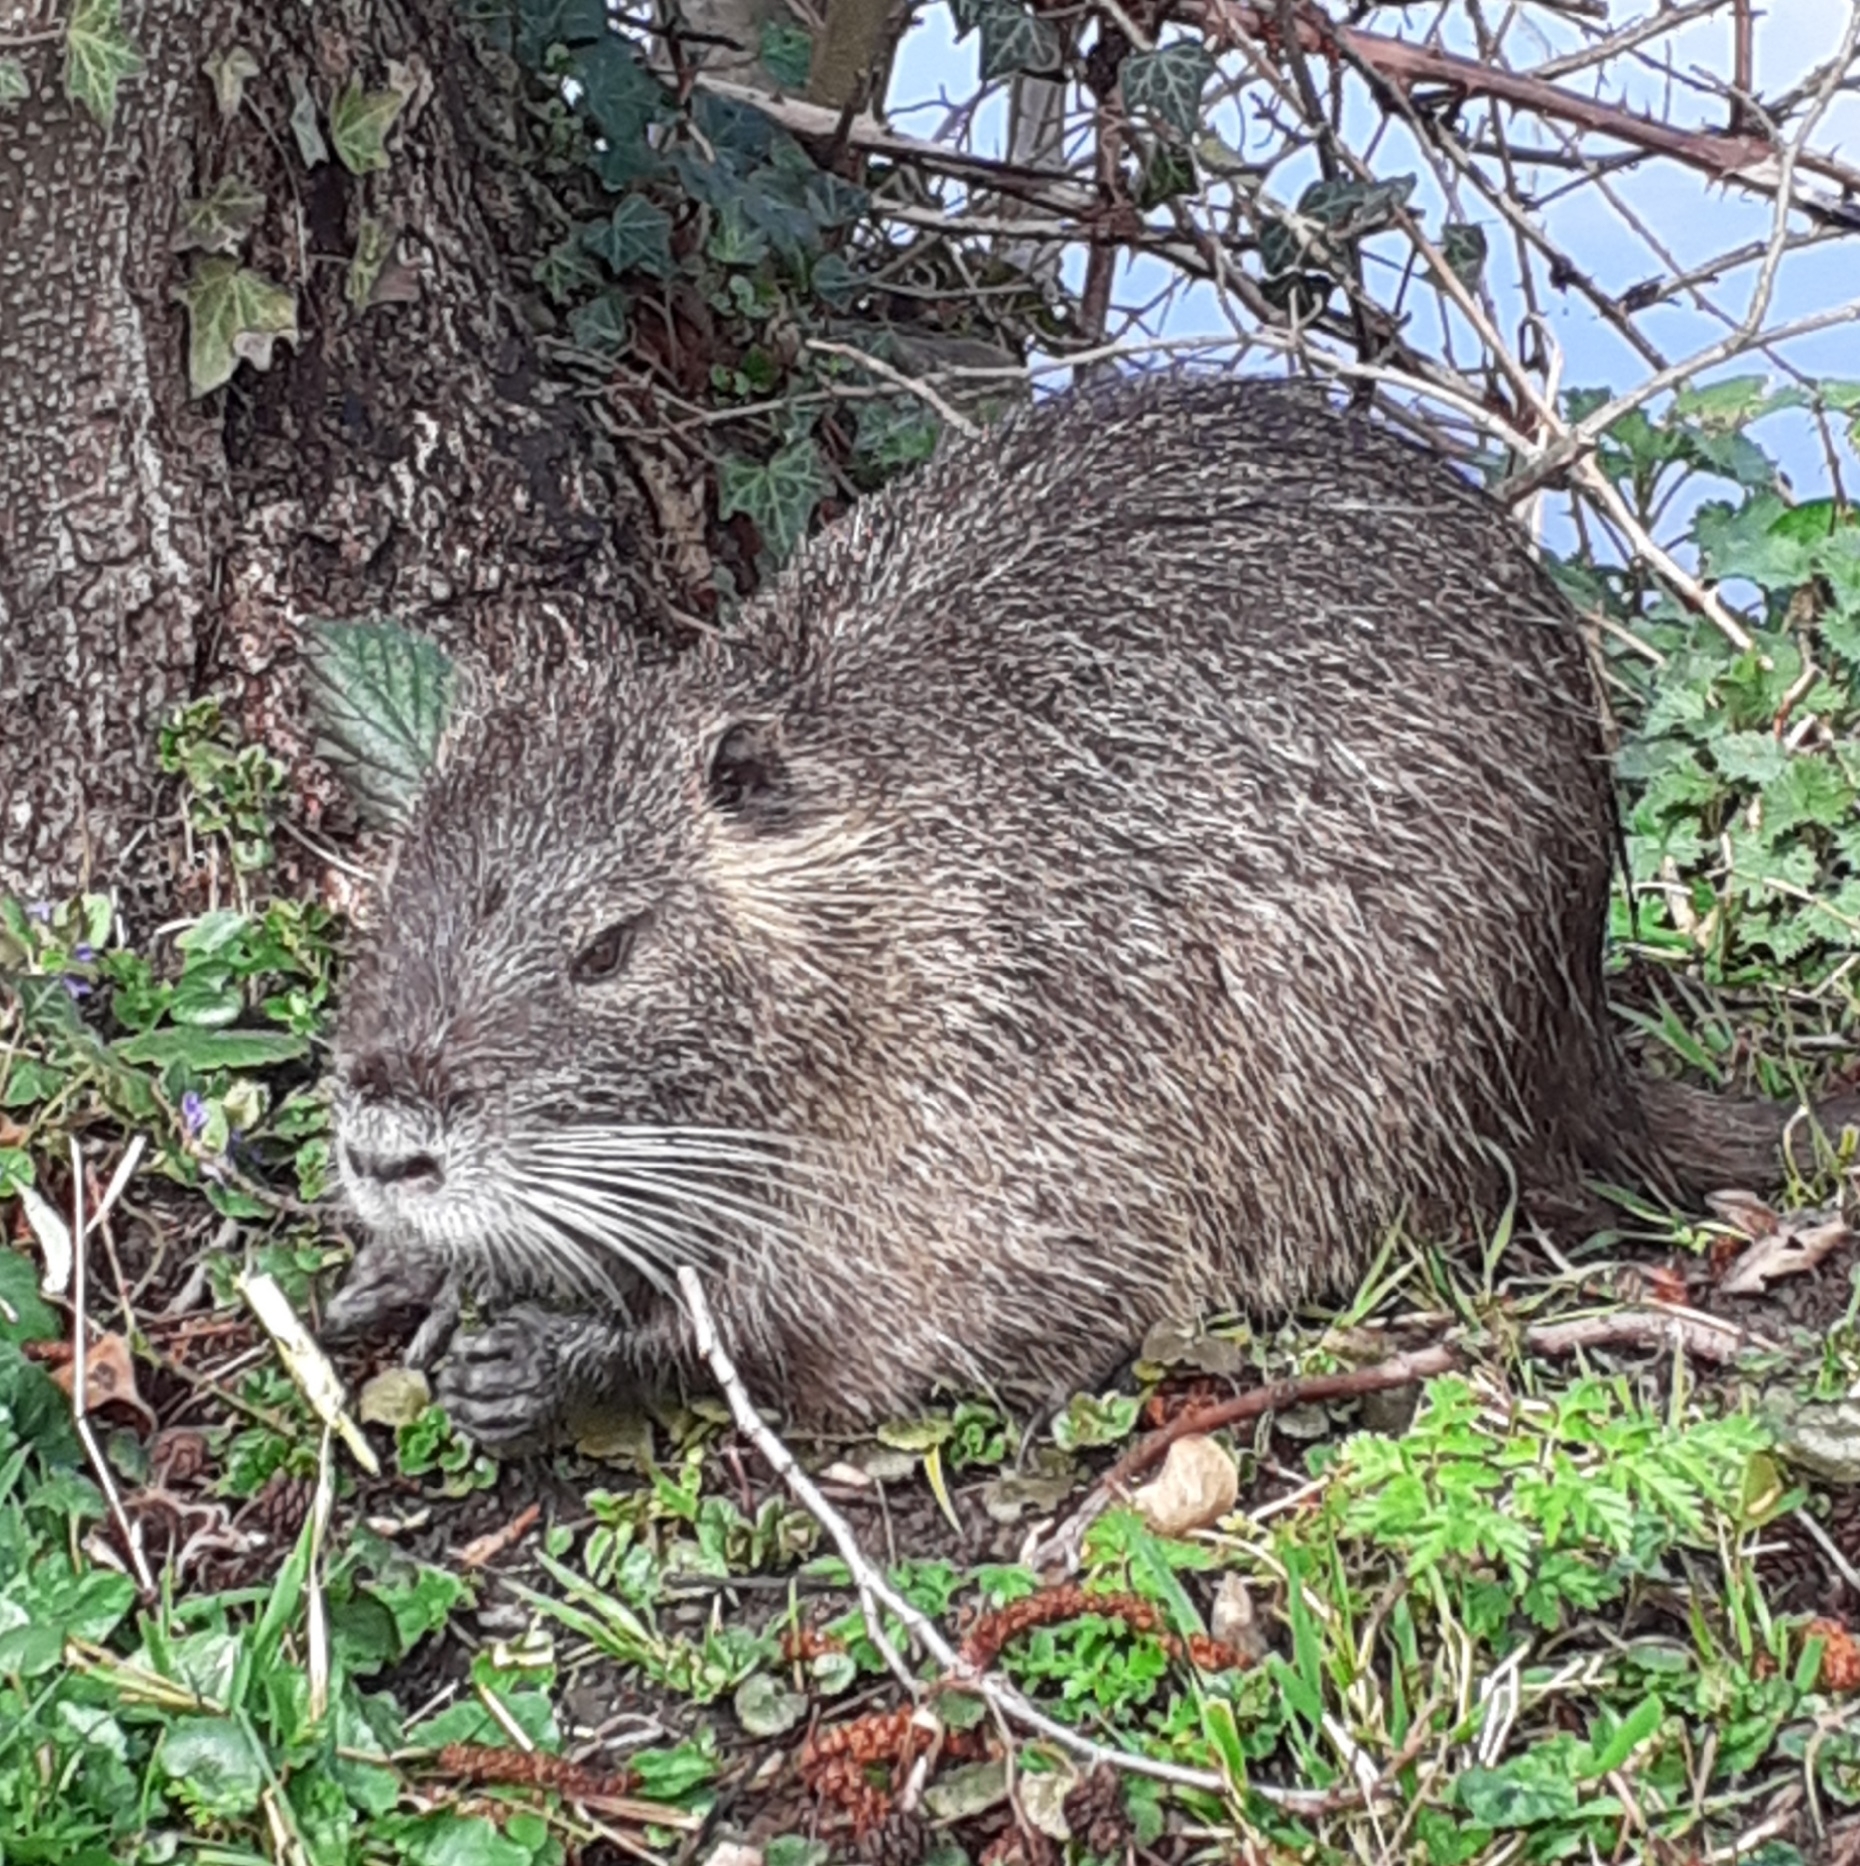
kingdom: Animalia
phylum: Chordata
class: Mammalia
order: Rodentia
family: Myocastoridae
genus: Myocastor
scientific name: Myocastor coypus
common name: Coypu
